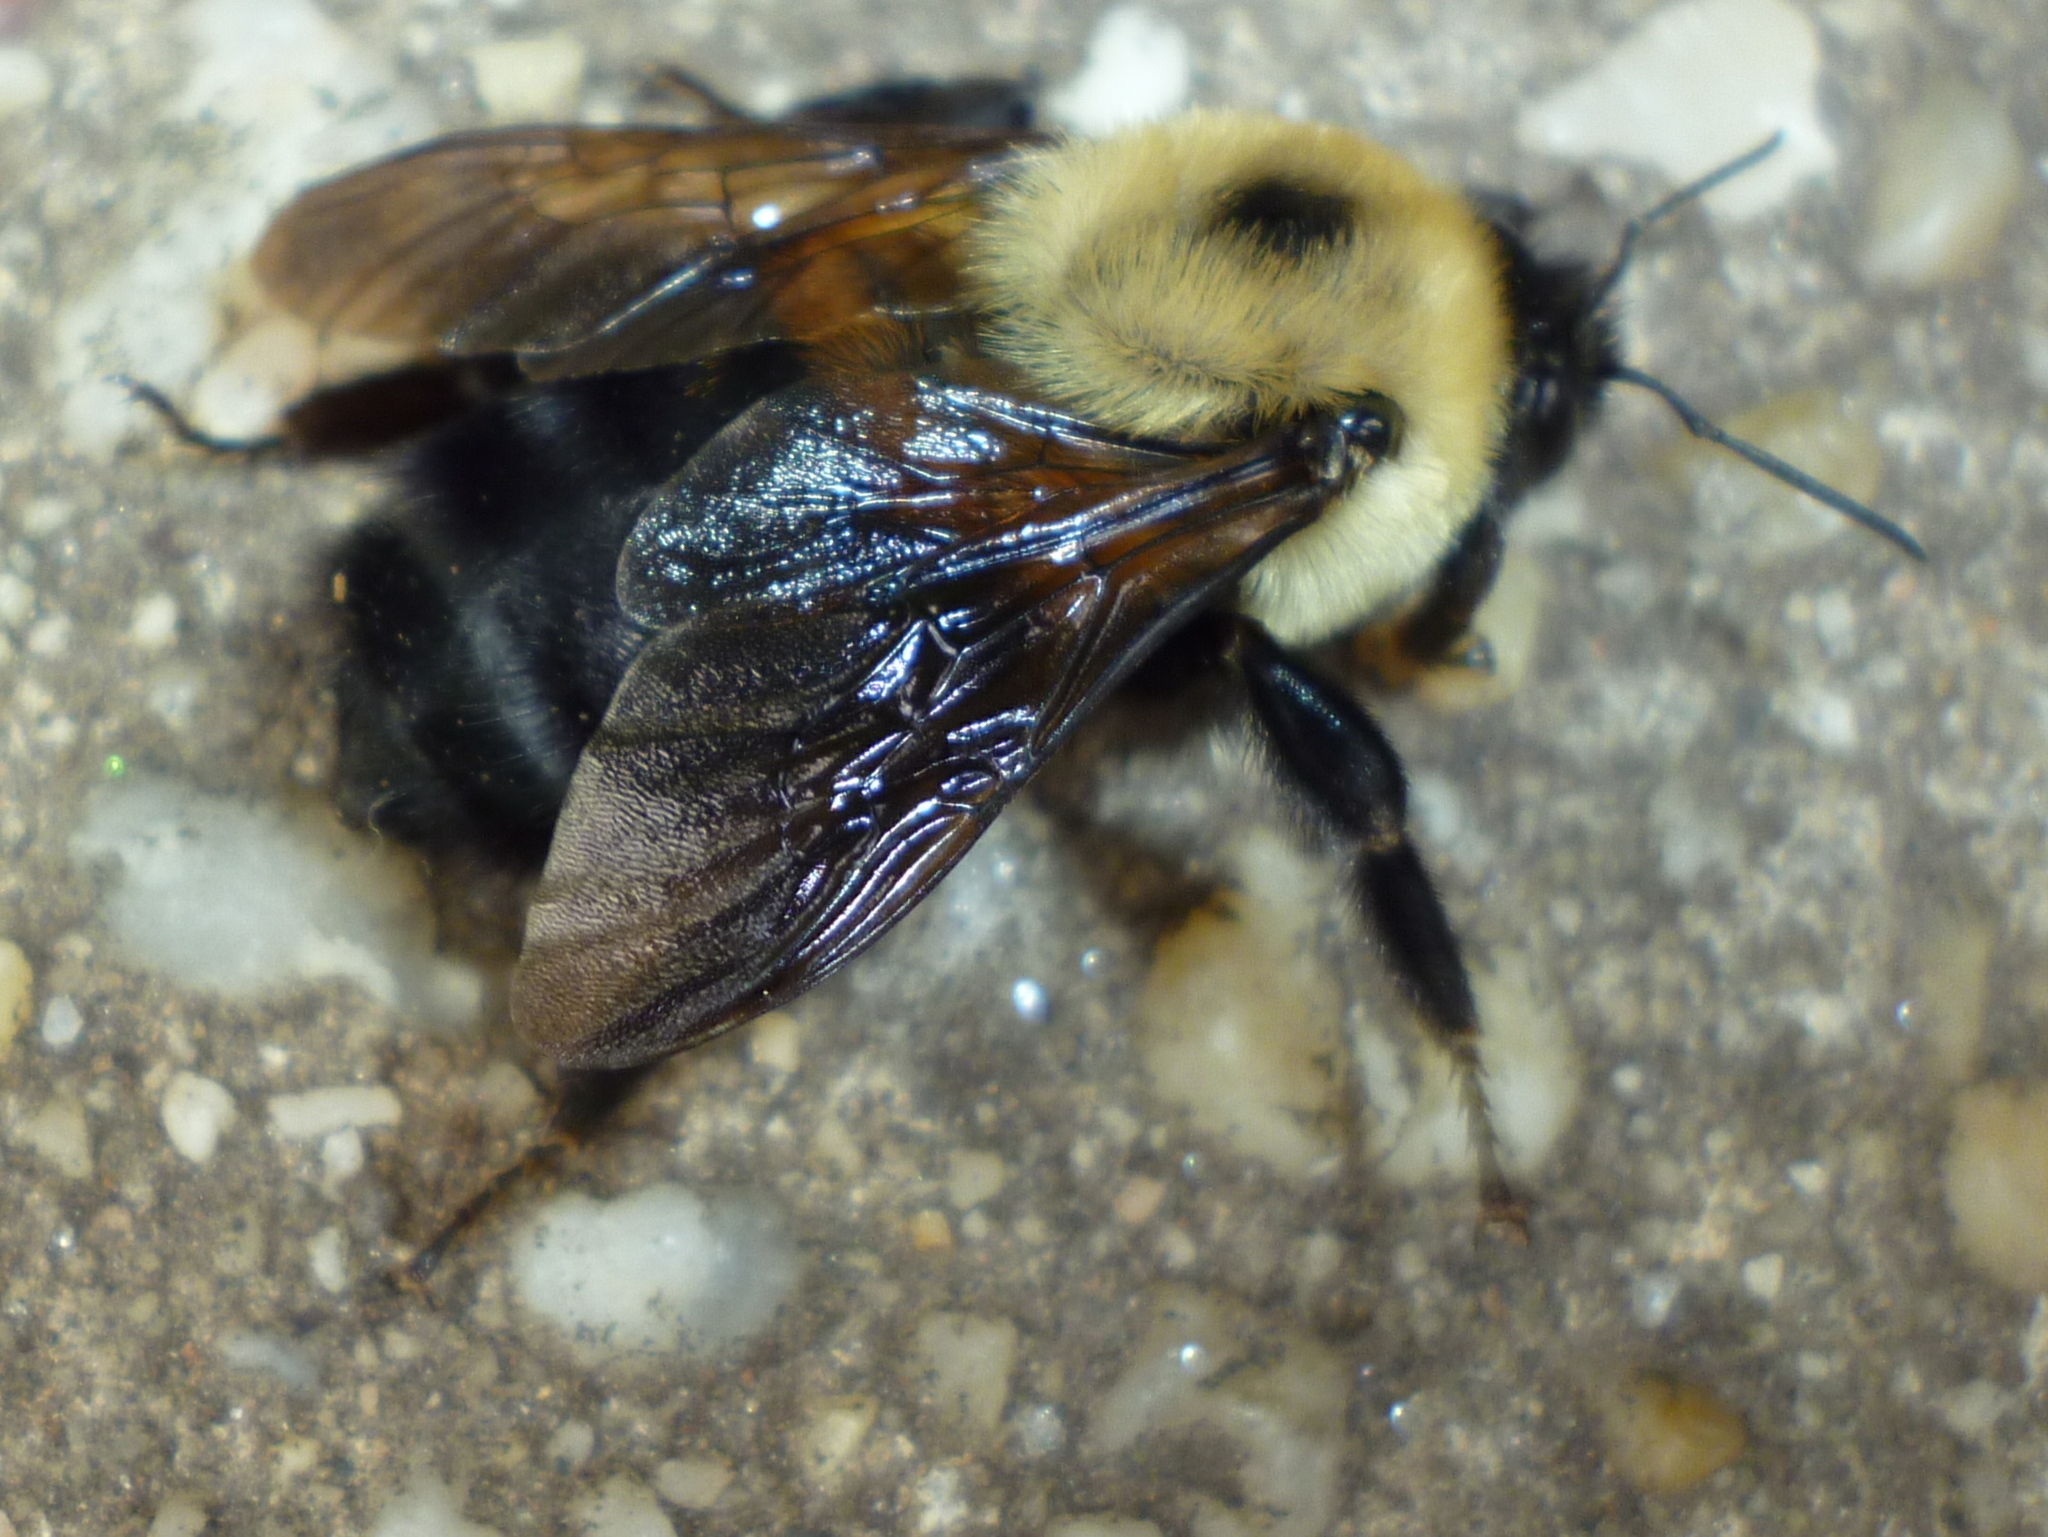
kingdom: Animalia
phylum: Arthropoda
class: Insecta
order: Hymenoptera
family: Apidae
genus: Bombus
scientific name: Bombus griseocollis
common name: Brown-belted bumble bee
